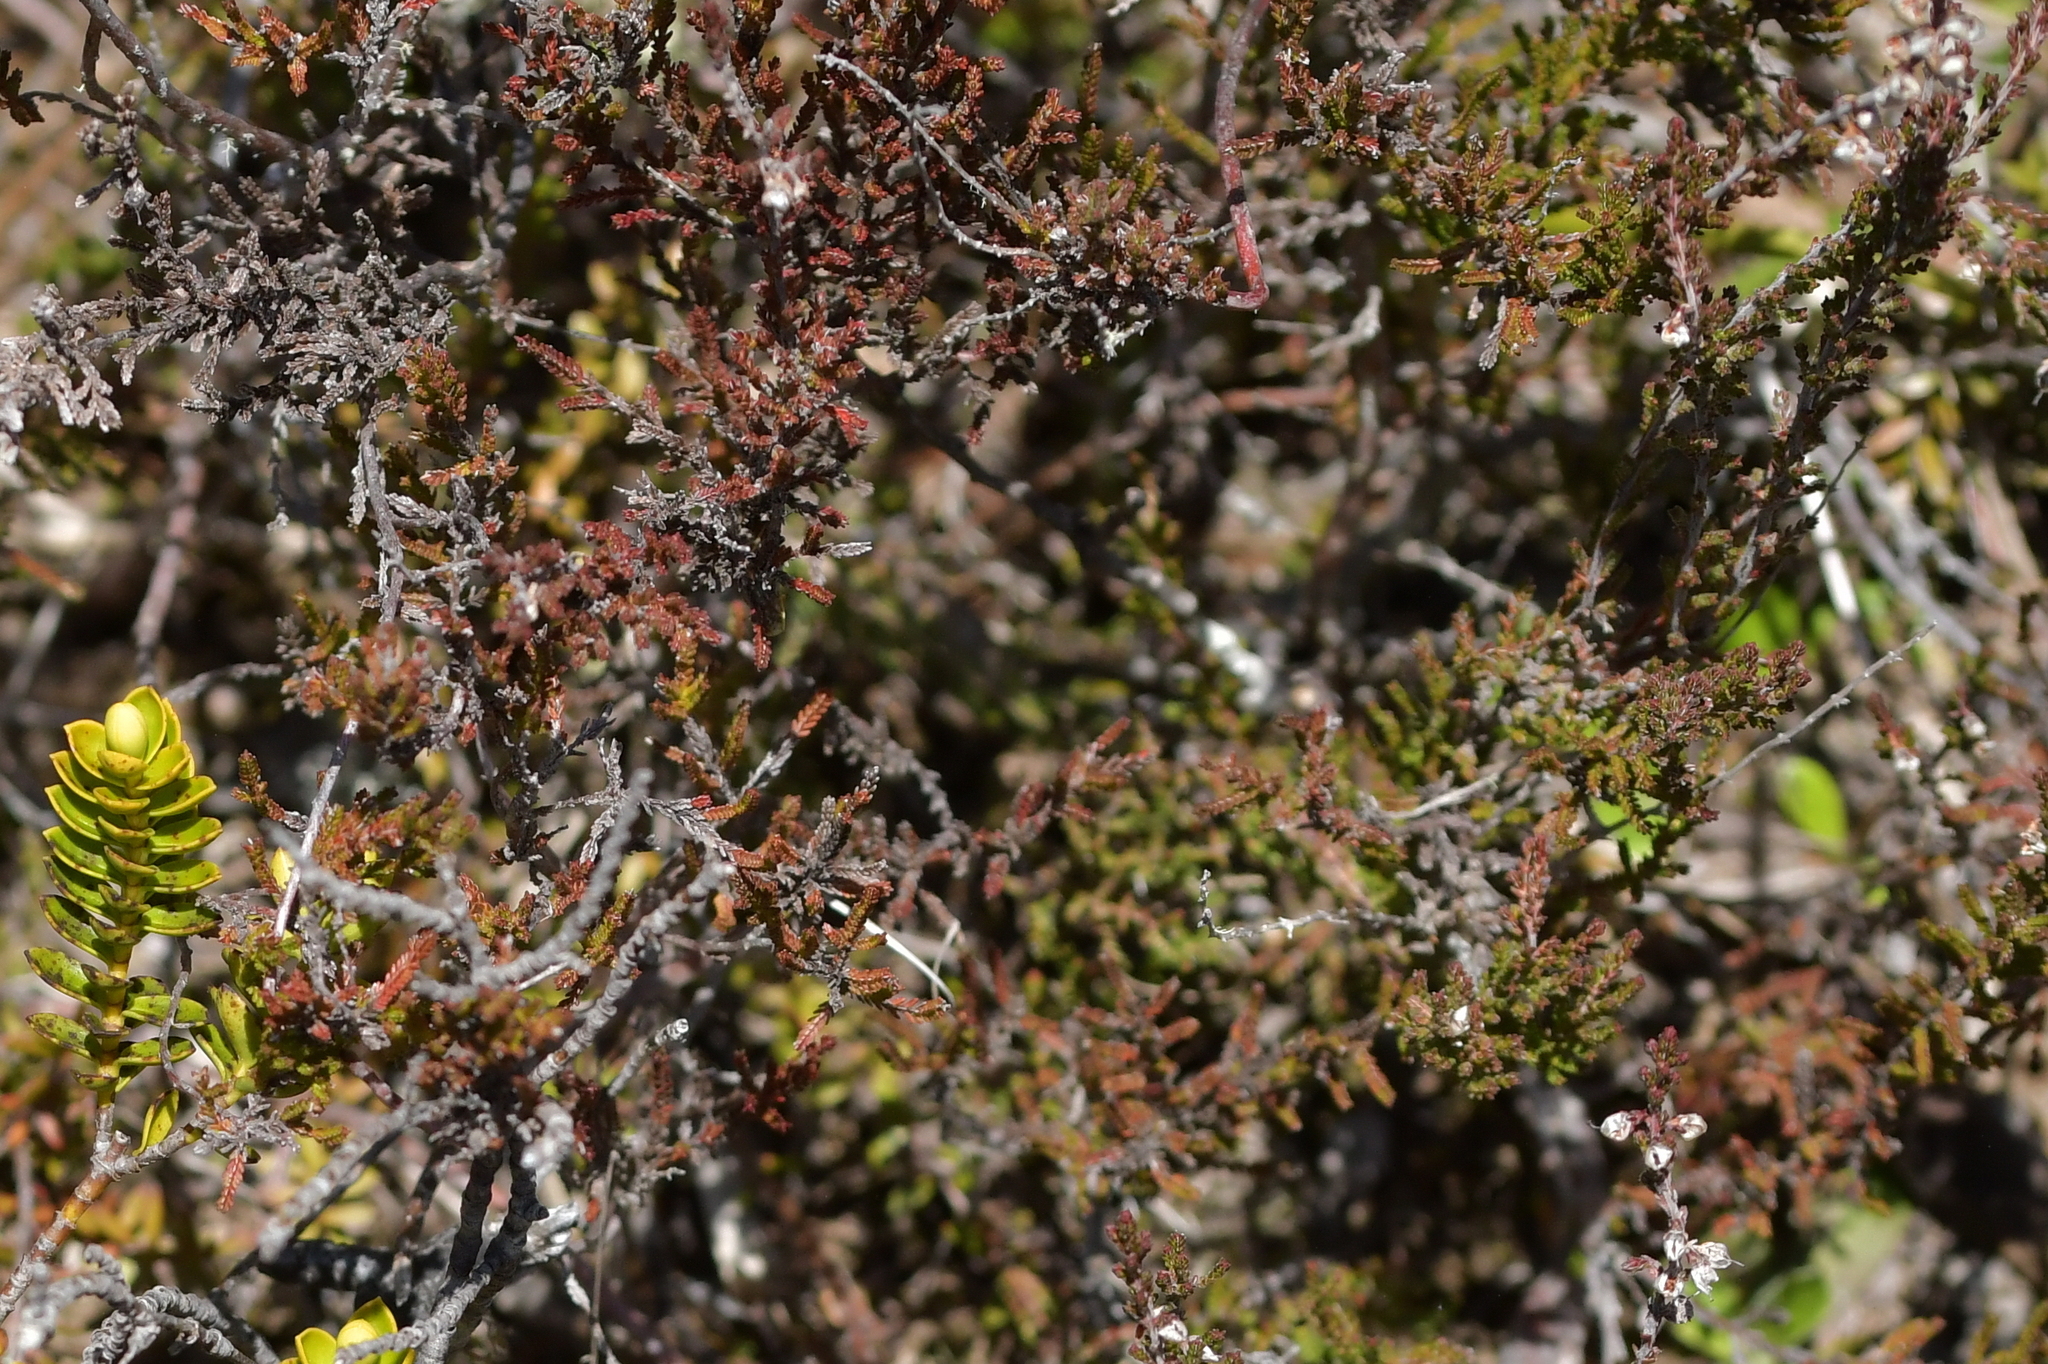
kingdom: Plantae
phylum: Tracheophyta
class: Magnoliopsida
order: Ericales
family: Ericaceae
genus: Calluna
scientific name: Calluna vulgaris
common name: Heather
